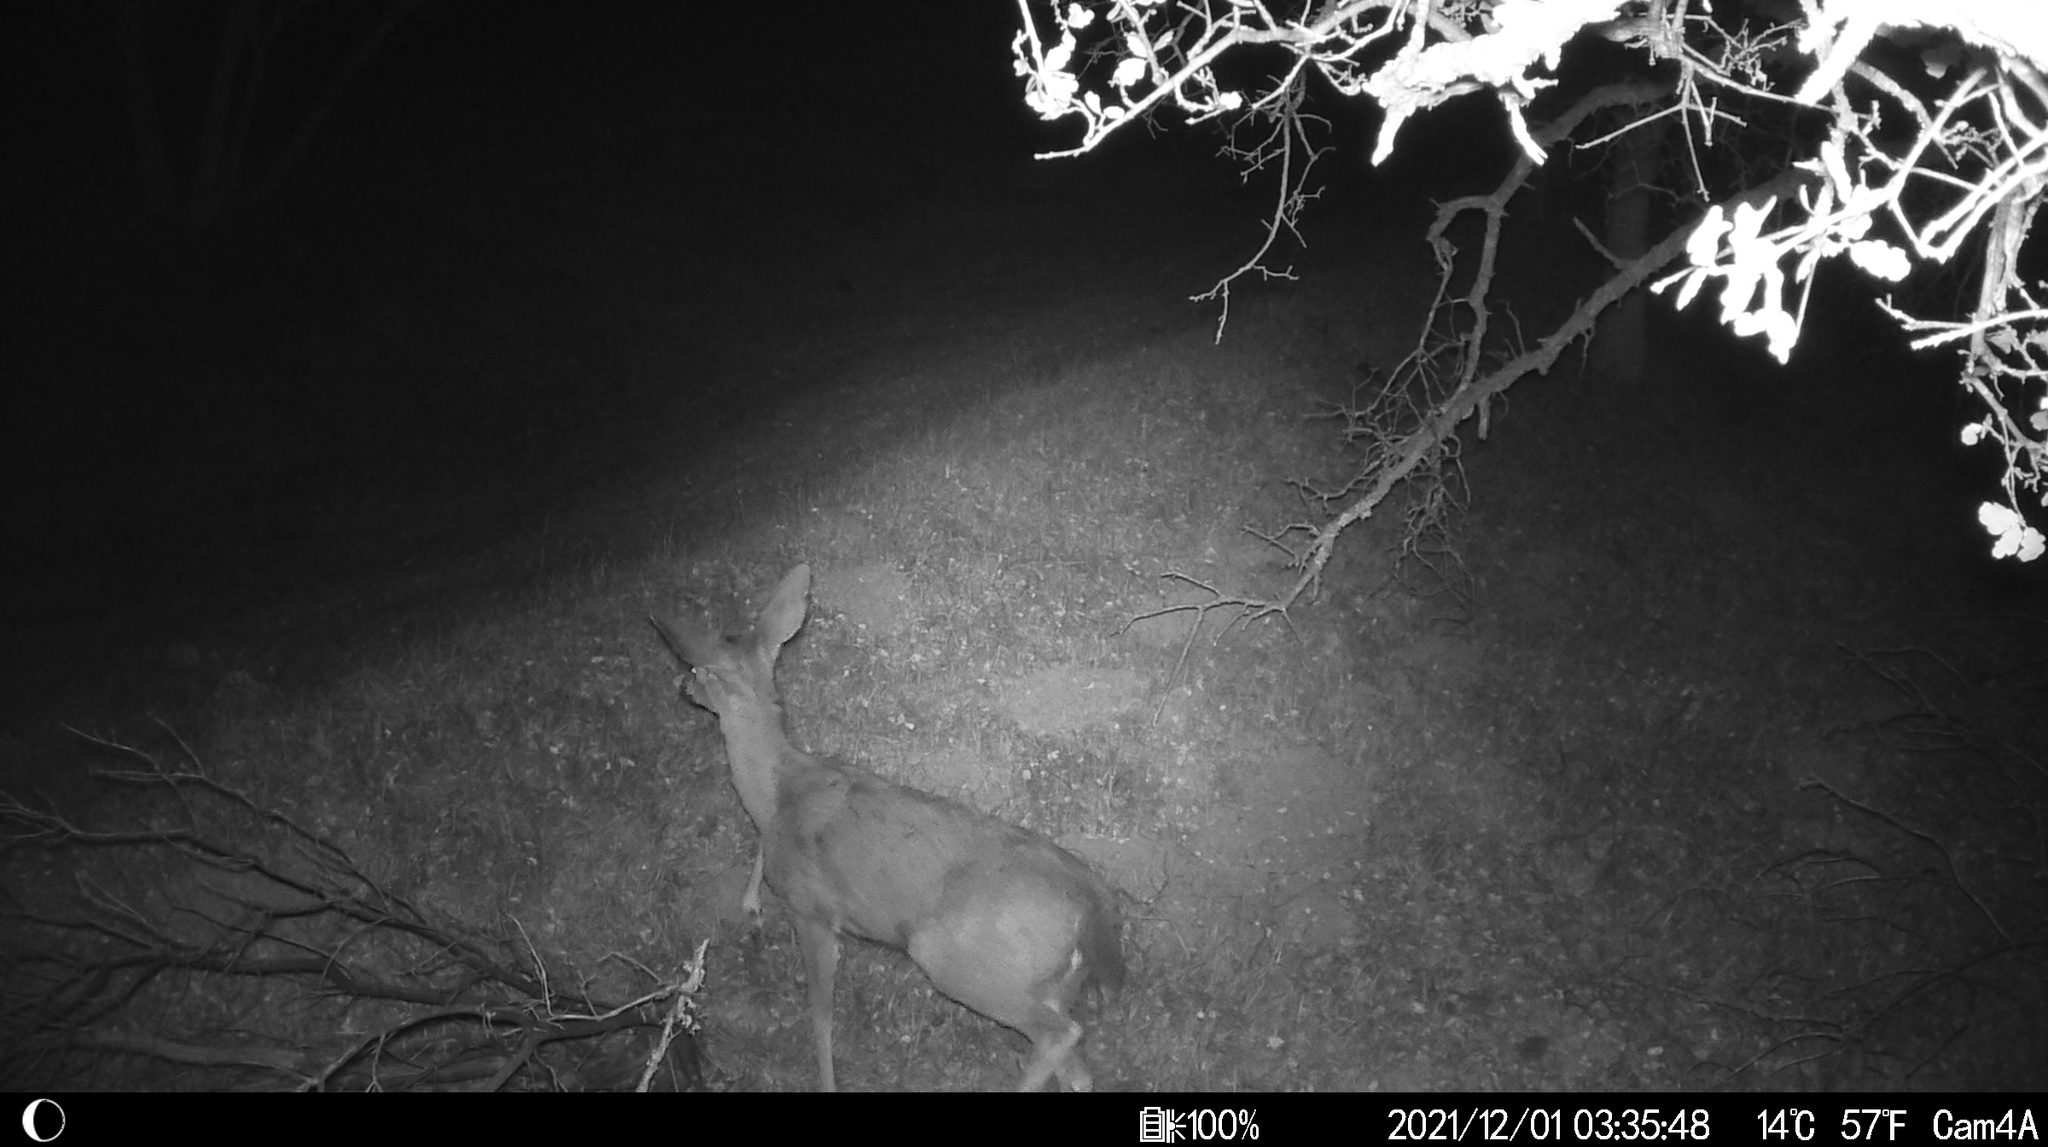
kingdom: Animalia
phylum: Chordata
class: Mammalia
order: Artiodactyla
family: Cervidae
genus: Odocoileus
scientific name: Odocoileus hemionus
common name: Mule deer
